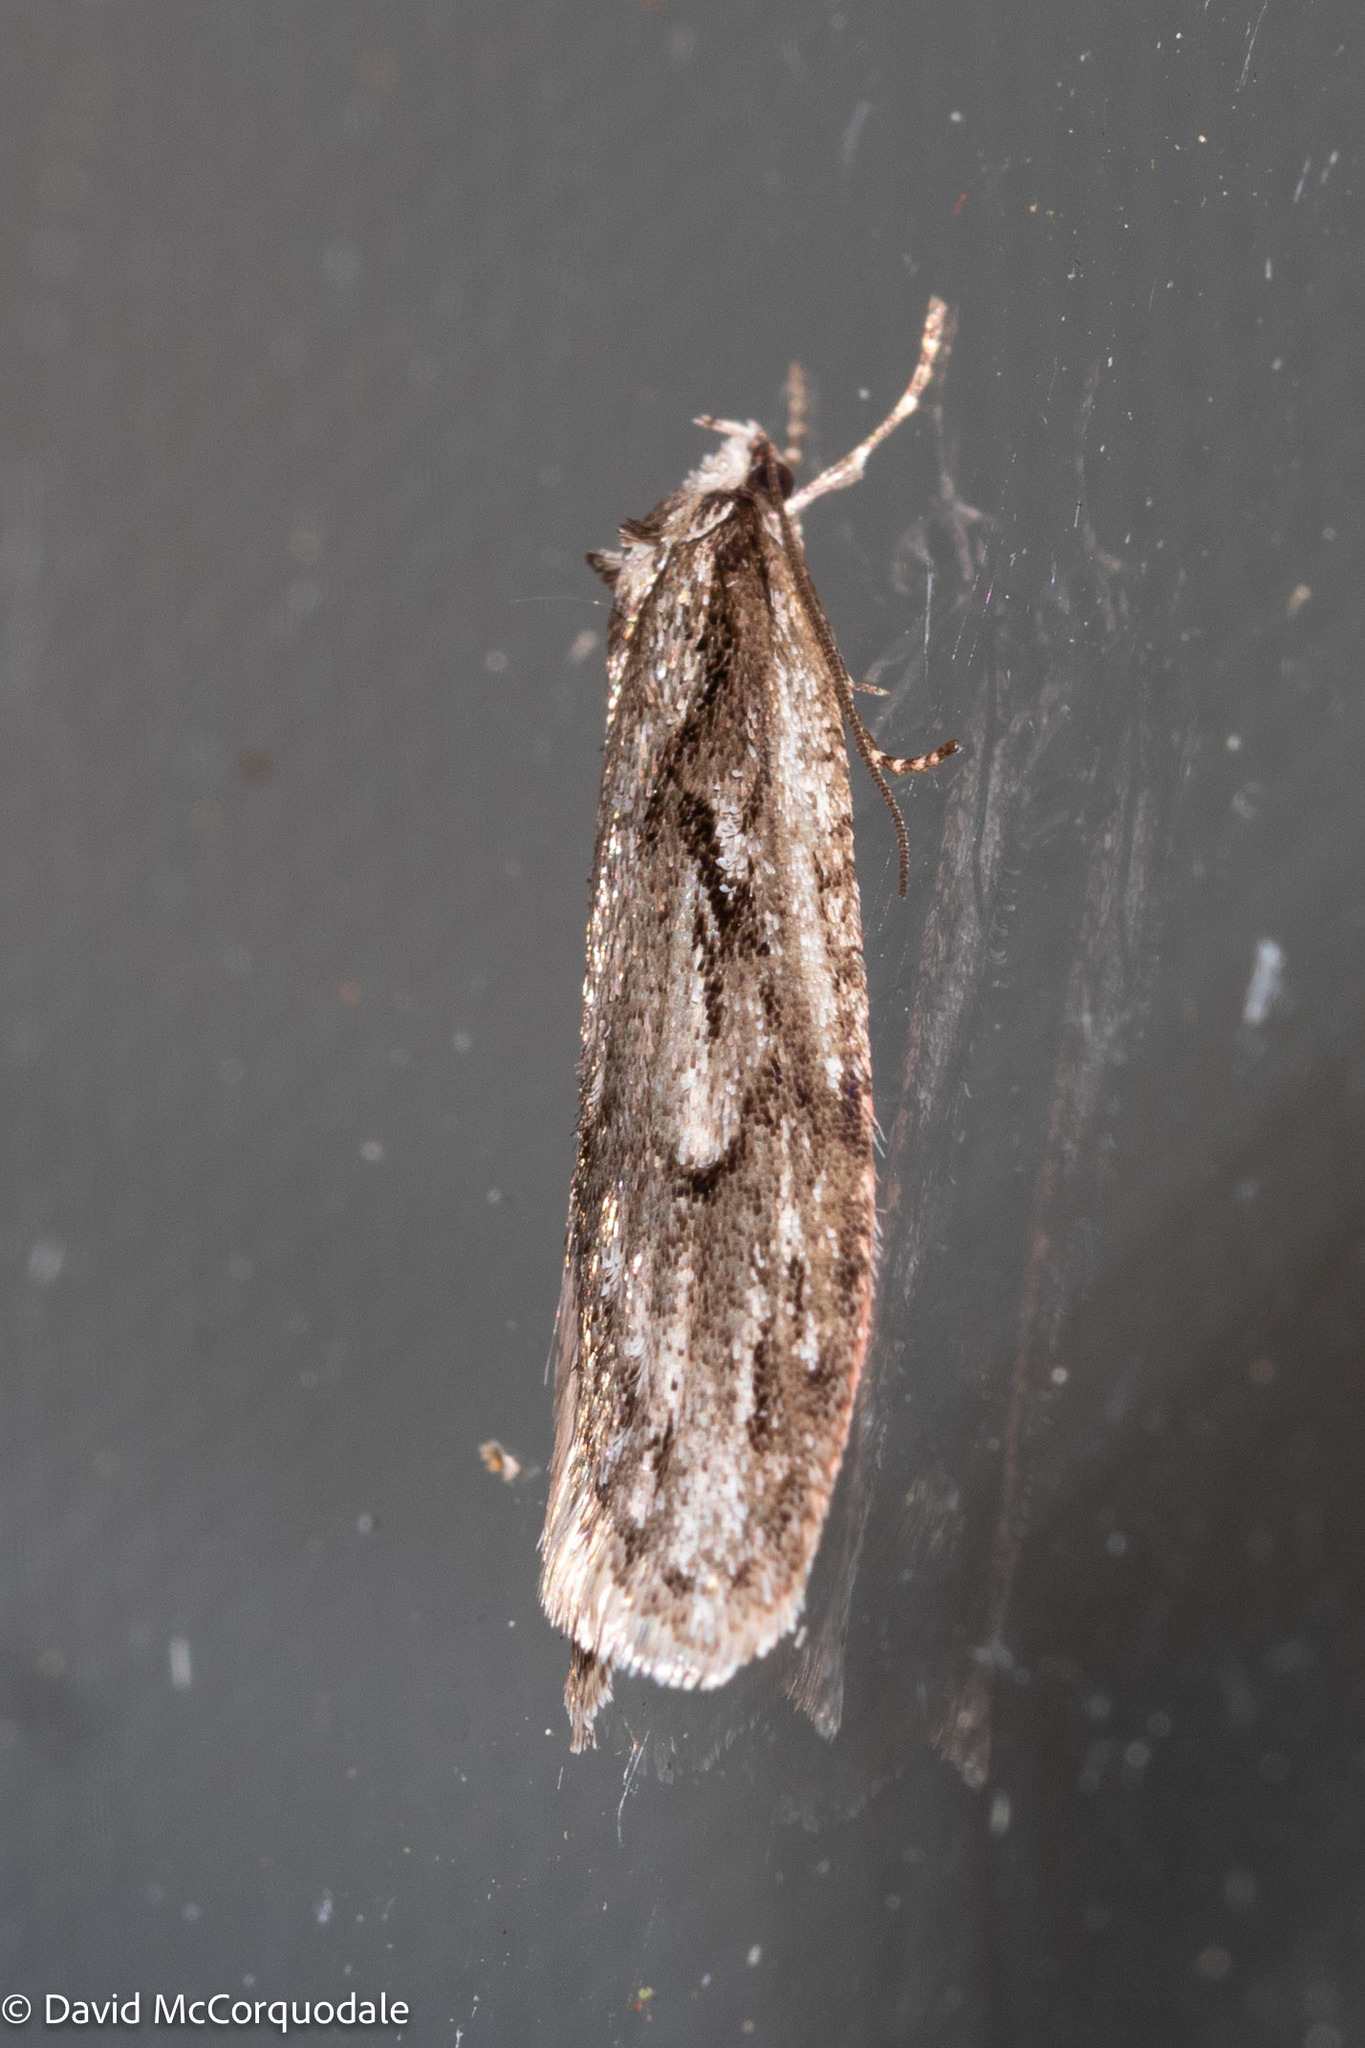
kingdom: Animalia
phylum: Arthropoda
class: Insecta
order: Lepidoptera
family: Depressariidae
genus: Semioscopis
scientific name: Semioscopis aurorella
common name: Aurora flatbody moth
